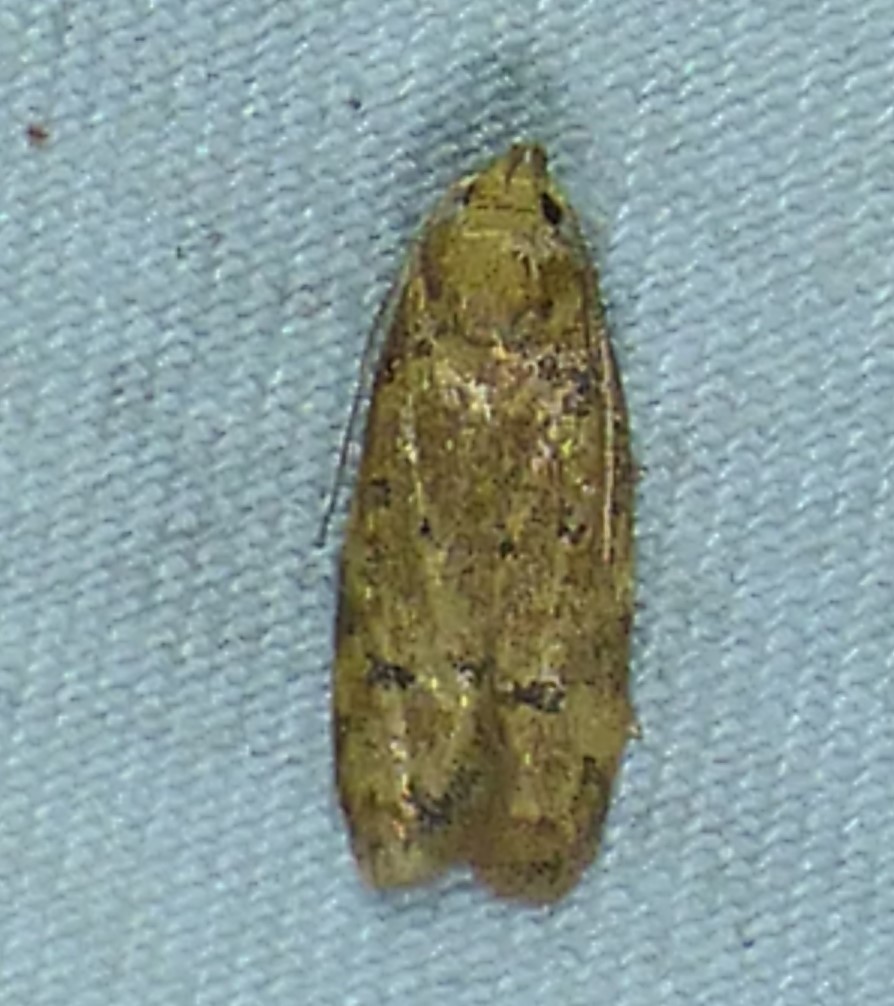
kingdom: Animalia
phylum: Arthropoda
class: Insecta
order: Lepidoptera
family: Autostichidae
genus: Gerdana
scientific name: Gerdana caritella
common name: Gerdana moth
